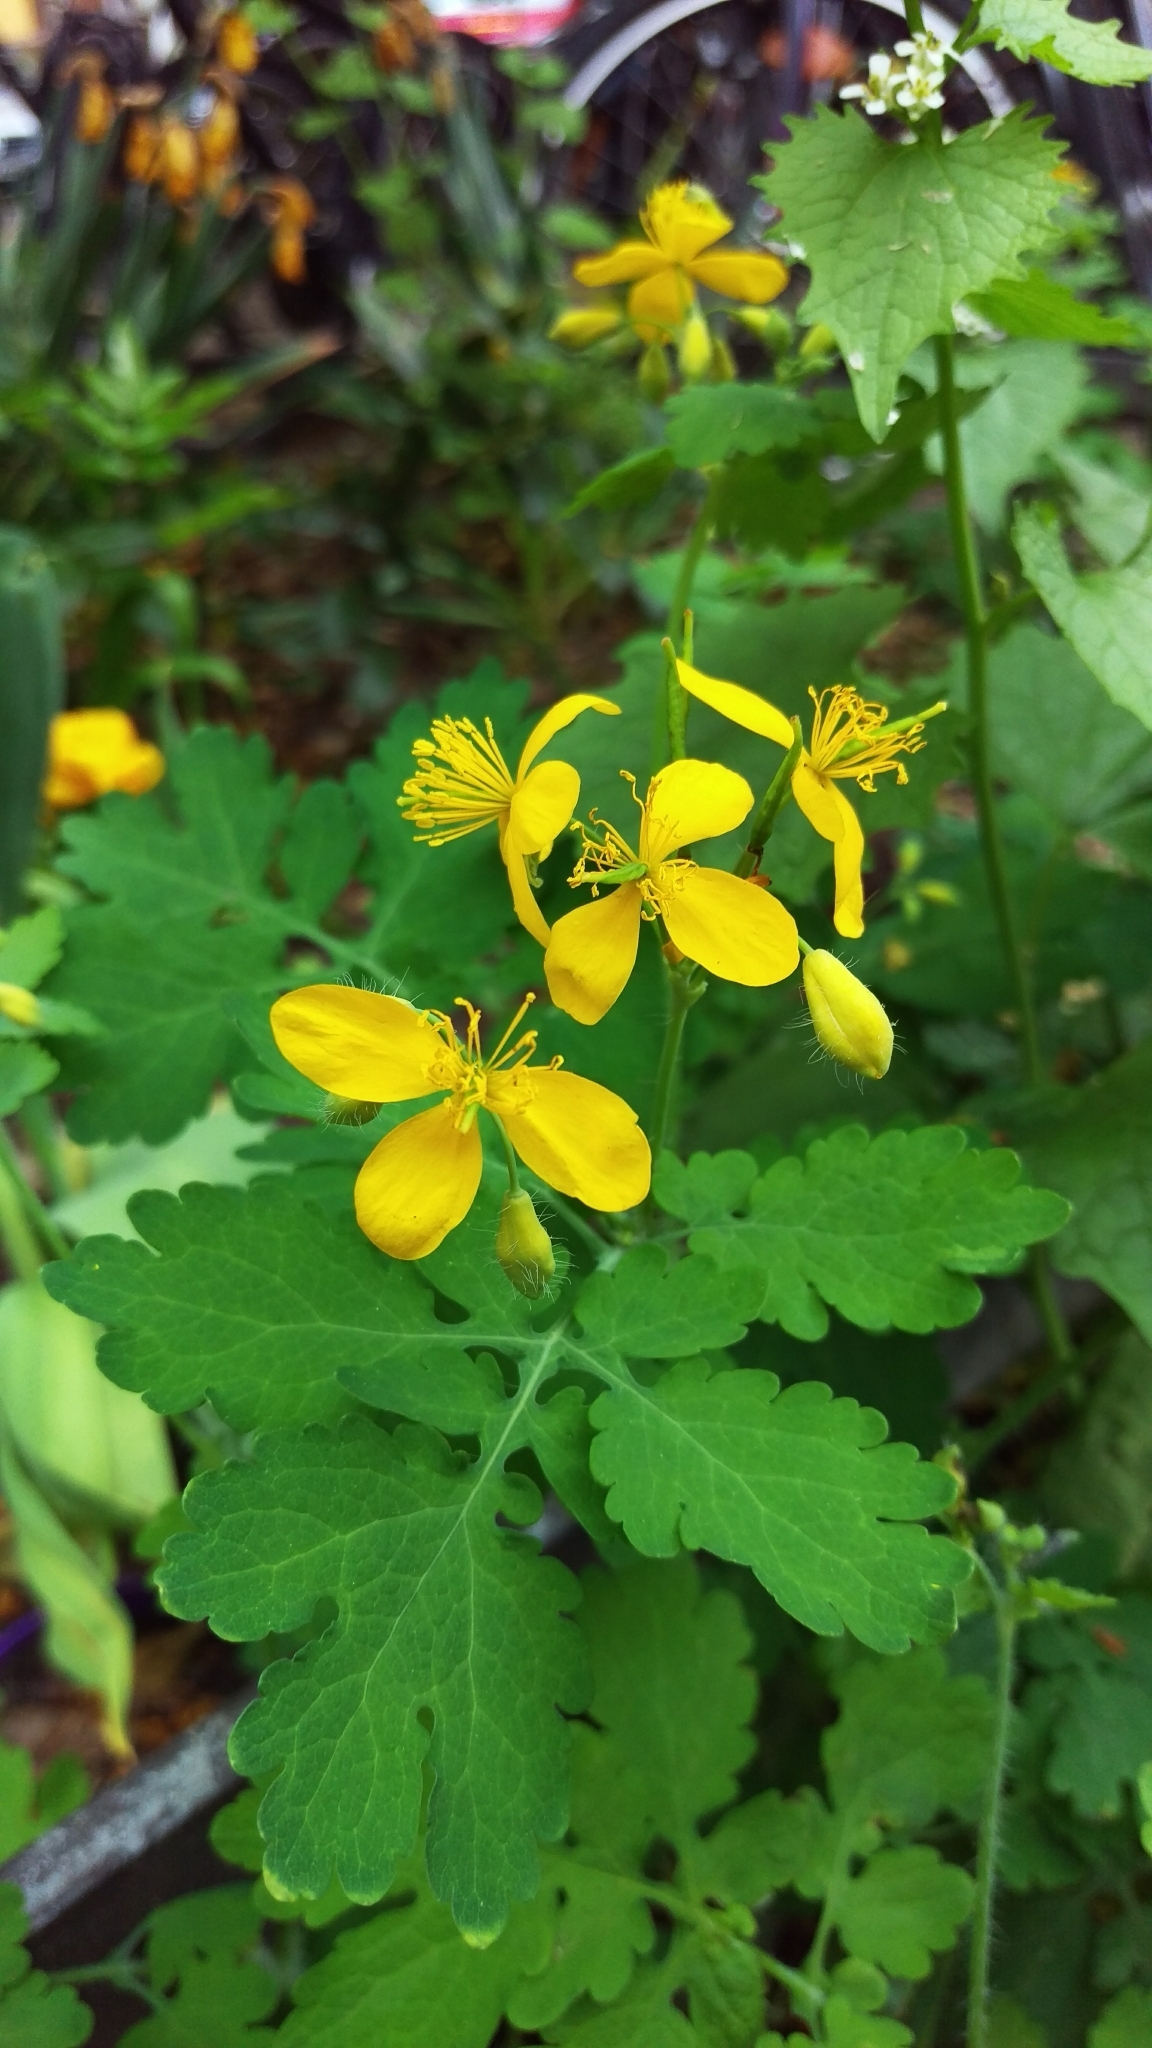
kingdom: Plantae
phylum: Tracheophyta
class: Magnoliopsida
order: Ranunculales
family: Papaveraceae
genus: Chelidonium
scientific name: Chelidonium majus
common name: Greater celandine
